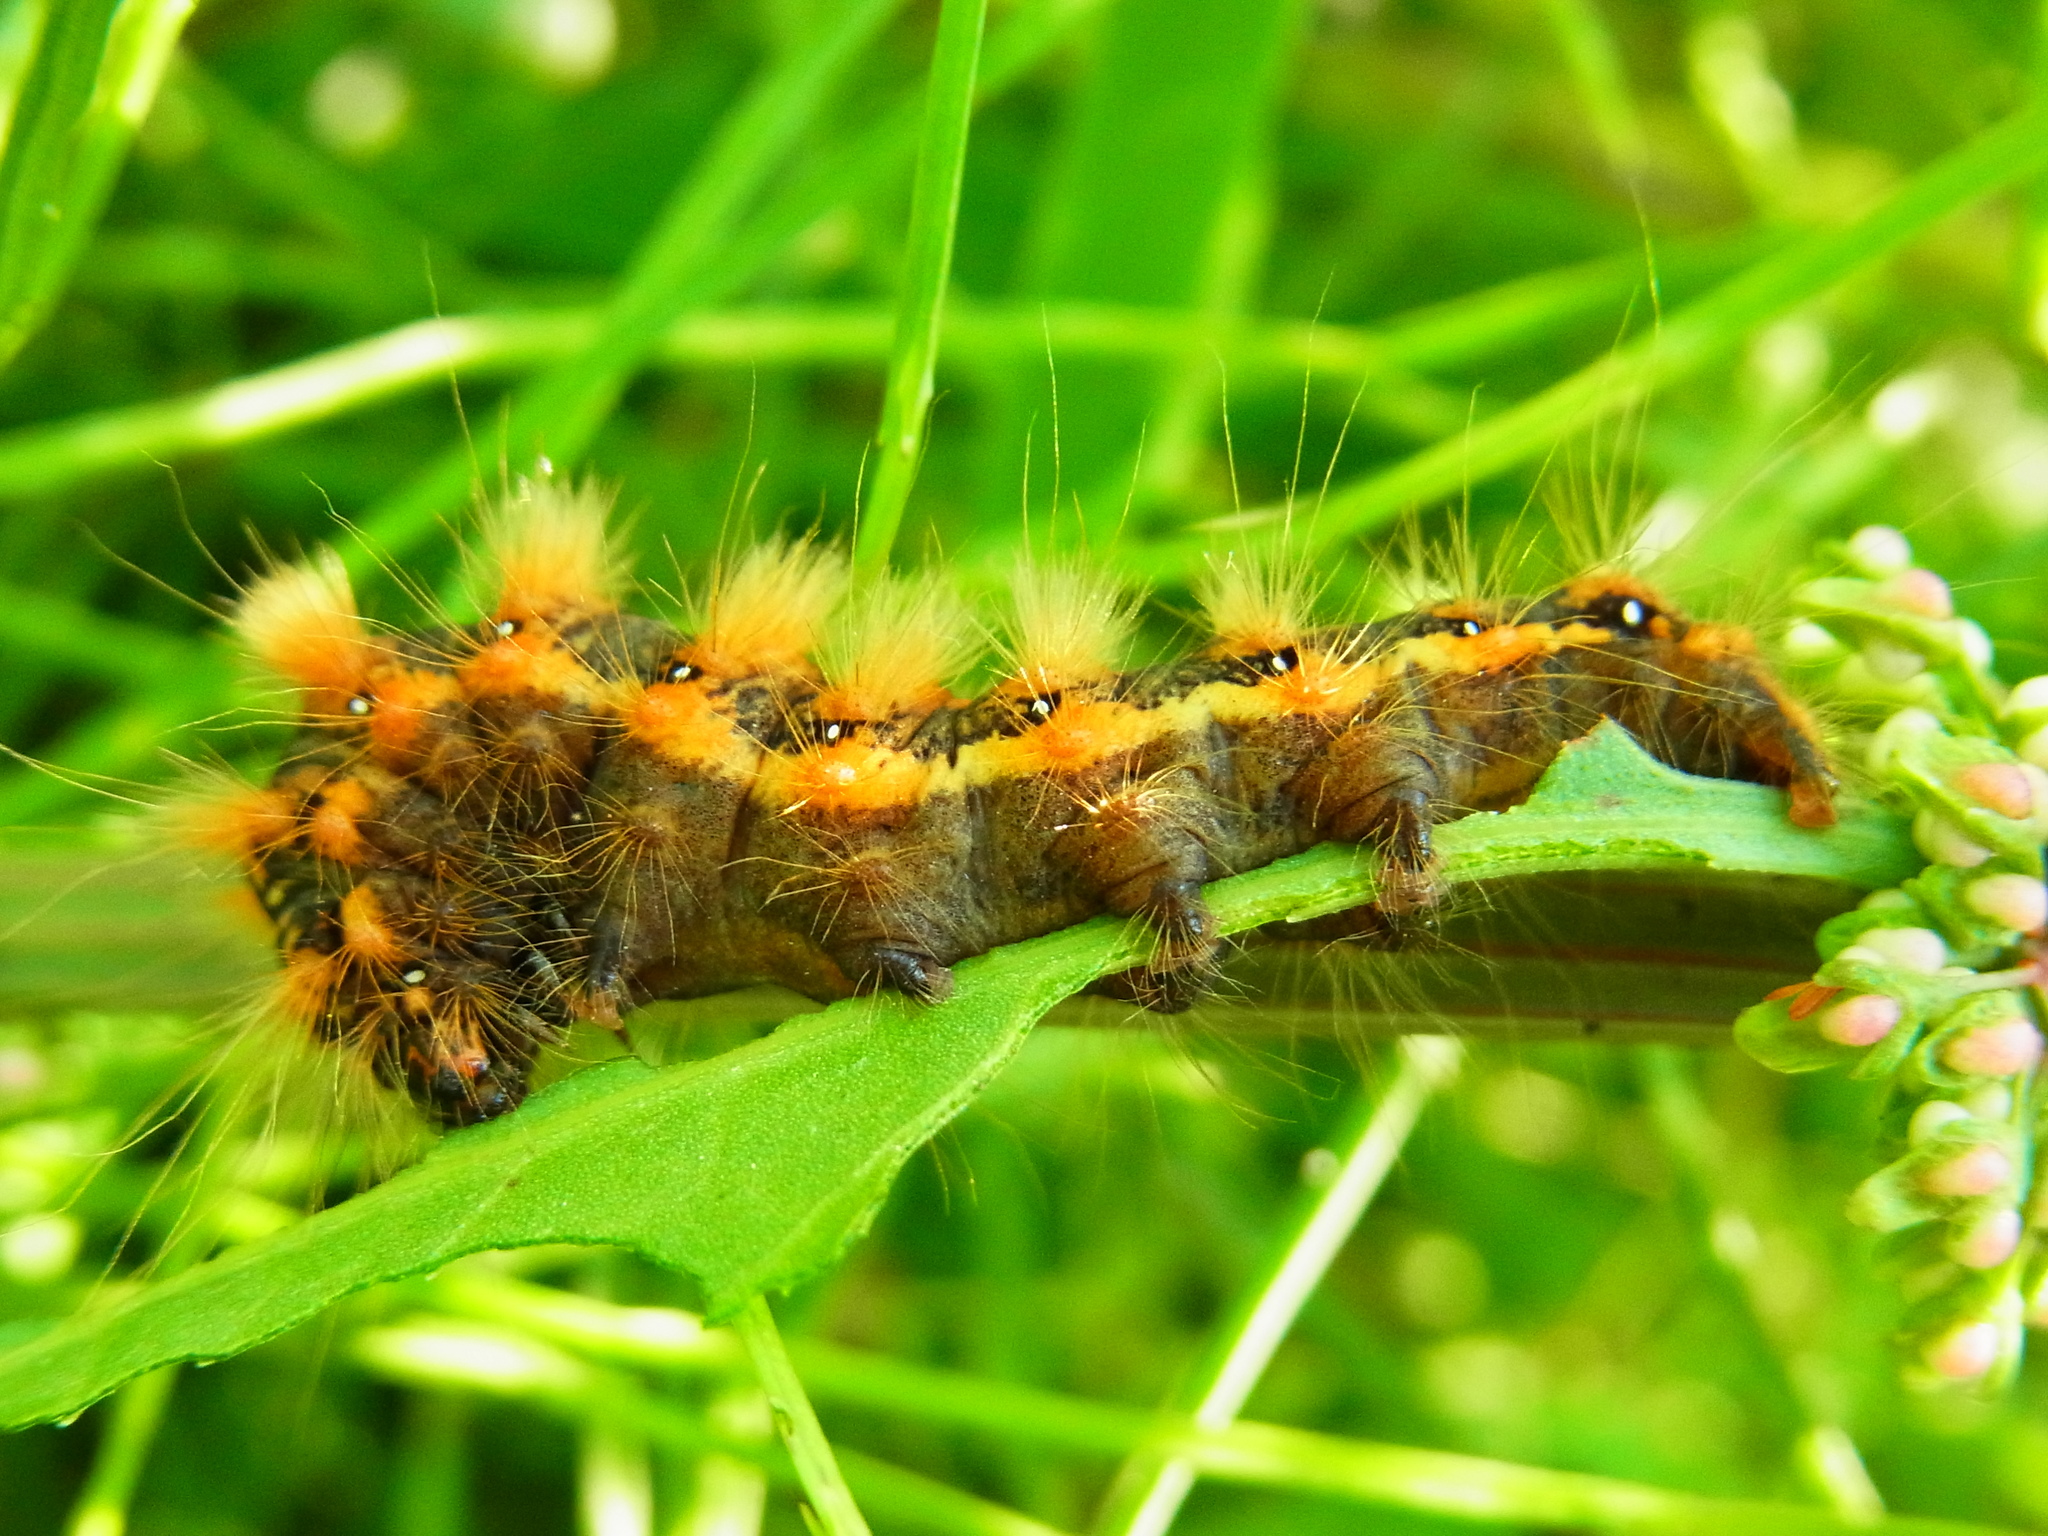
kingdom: Animalia
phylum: Arthropoda
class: Insecta
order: Lepidoptera
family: Noctuidae
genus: Acronicta
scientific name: Acronicta rumicis
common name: Knot grass
